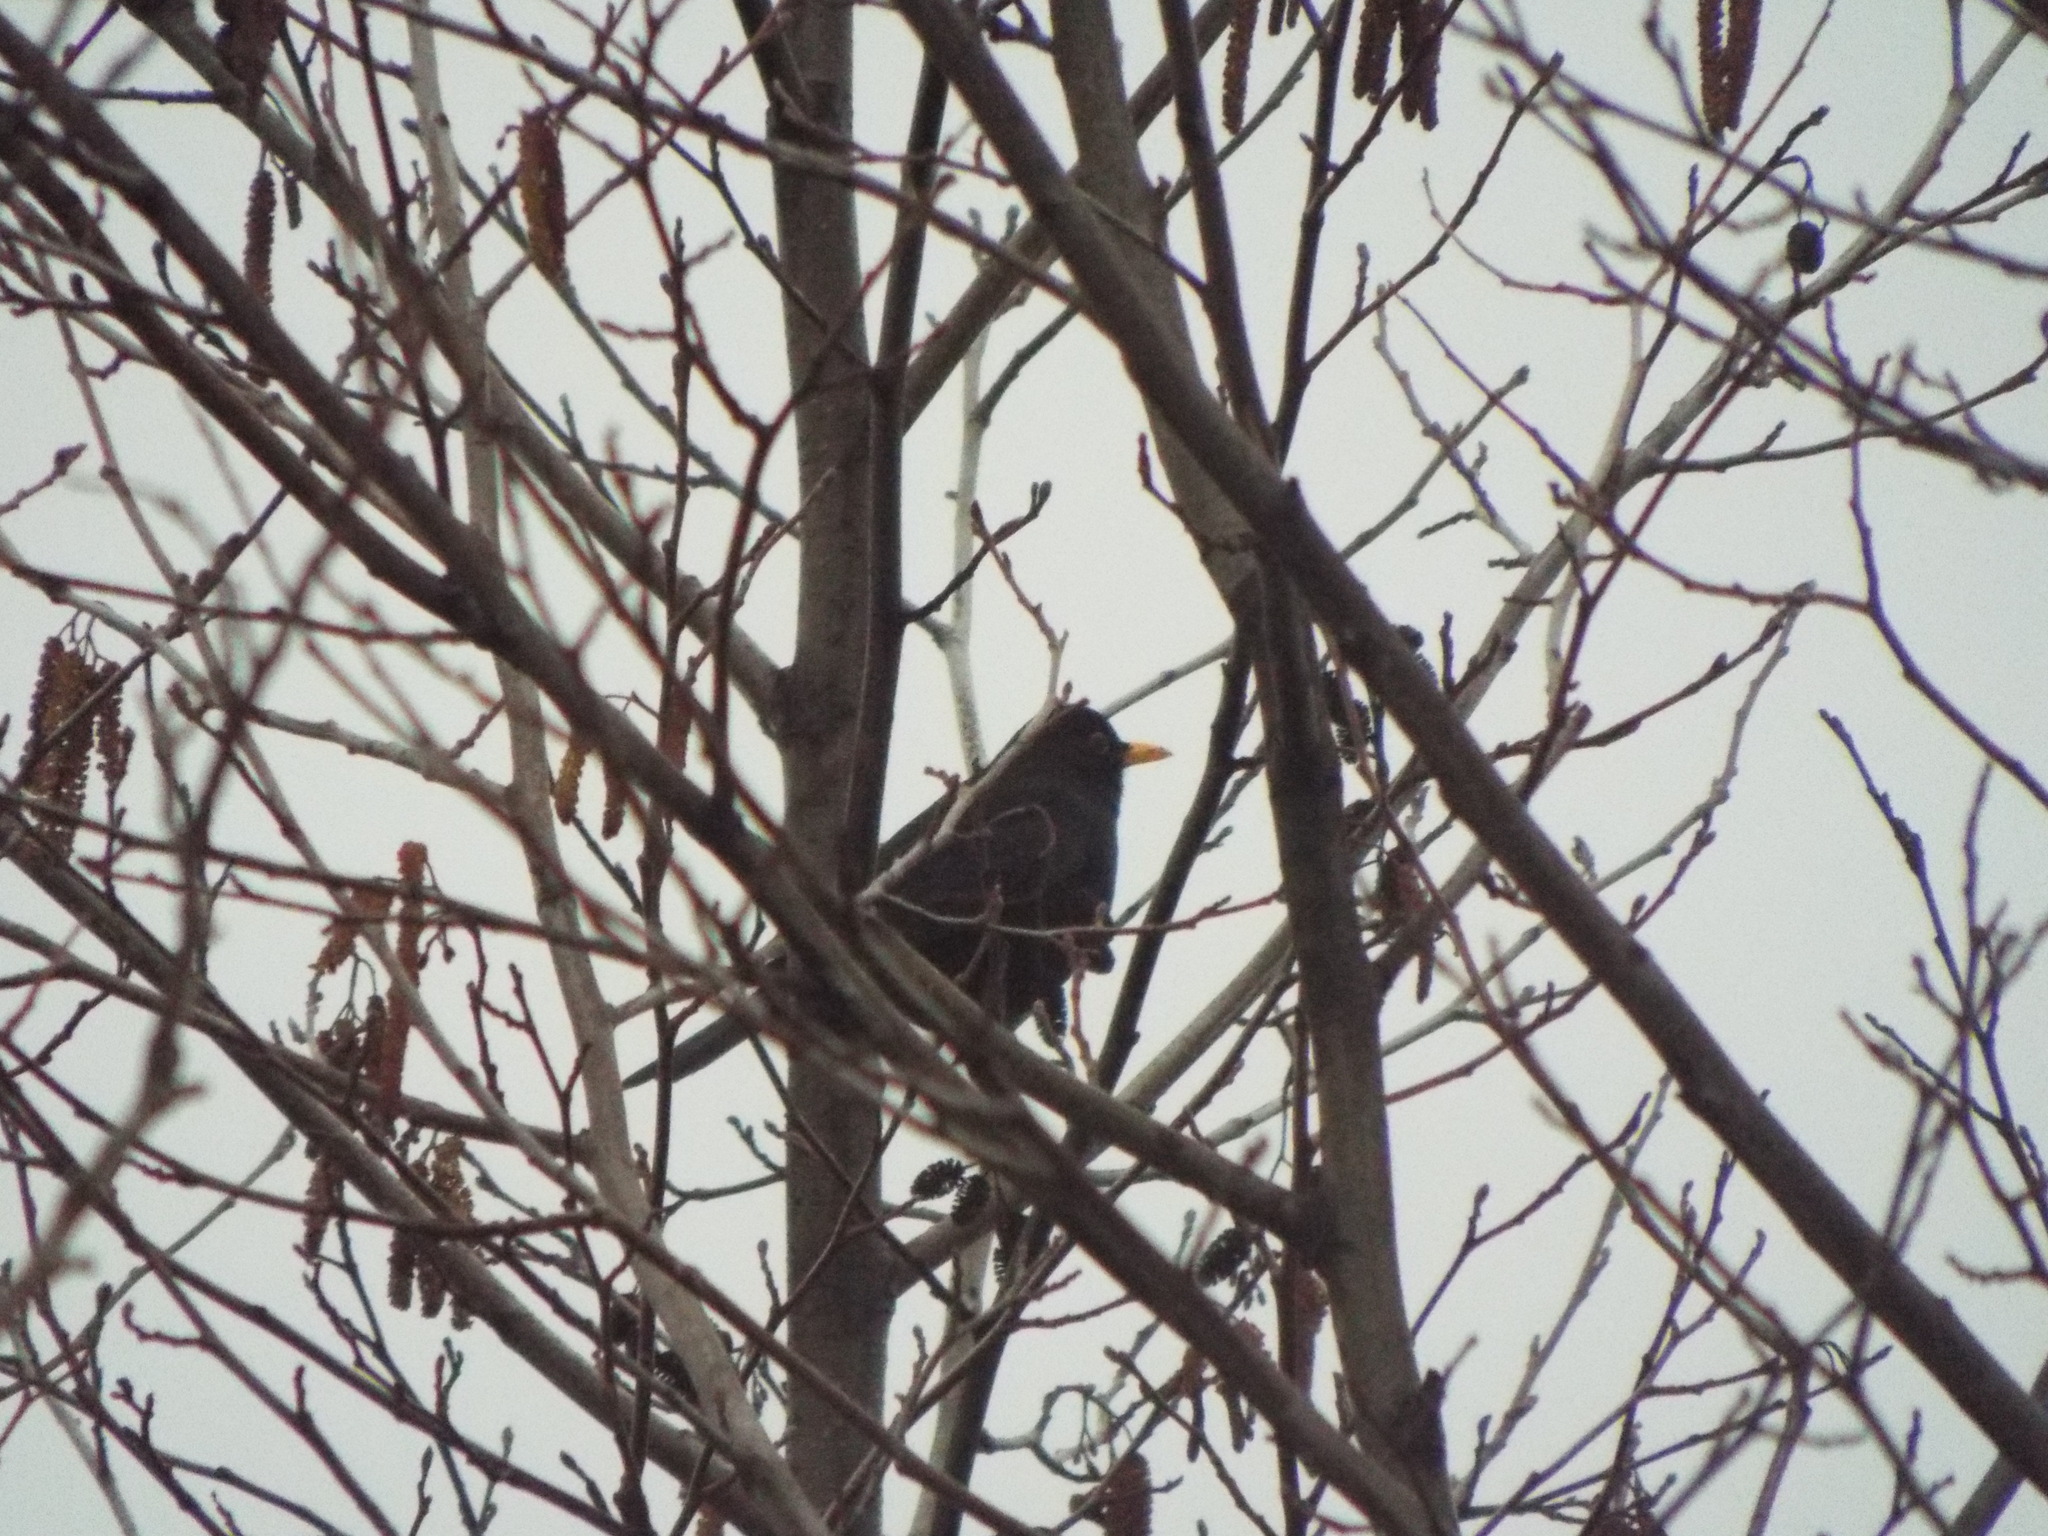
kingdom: Animalia
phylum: Chordata
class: Aves
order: Passeriformes
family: Turdidae
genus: Turdus
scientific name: Turdus merula
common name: Common blackbird
